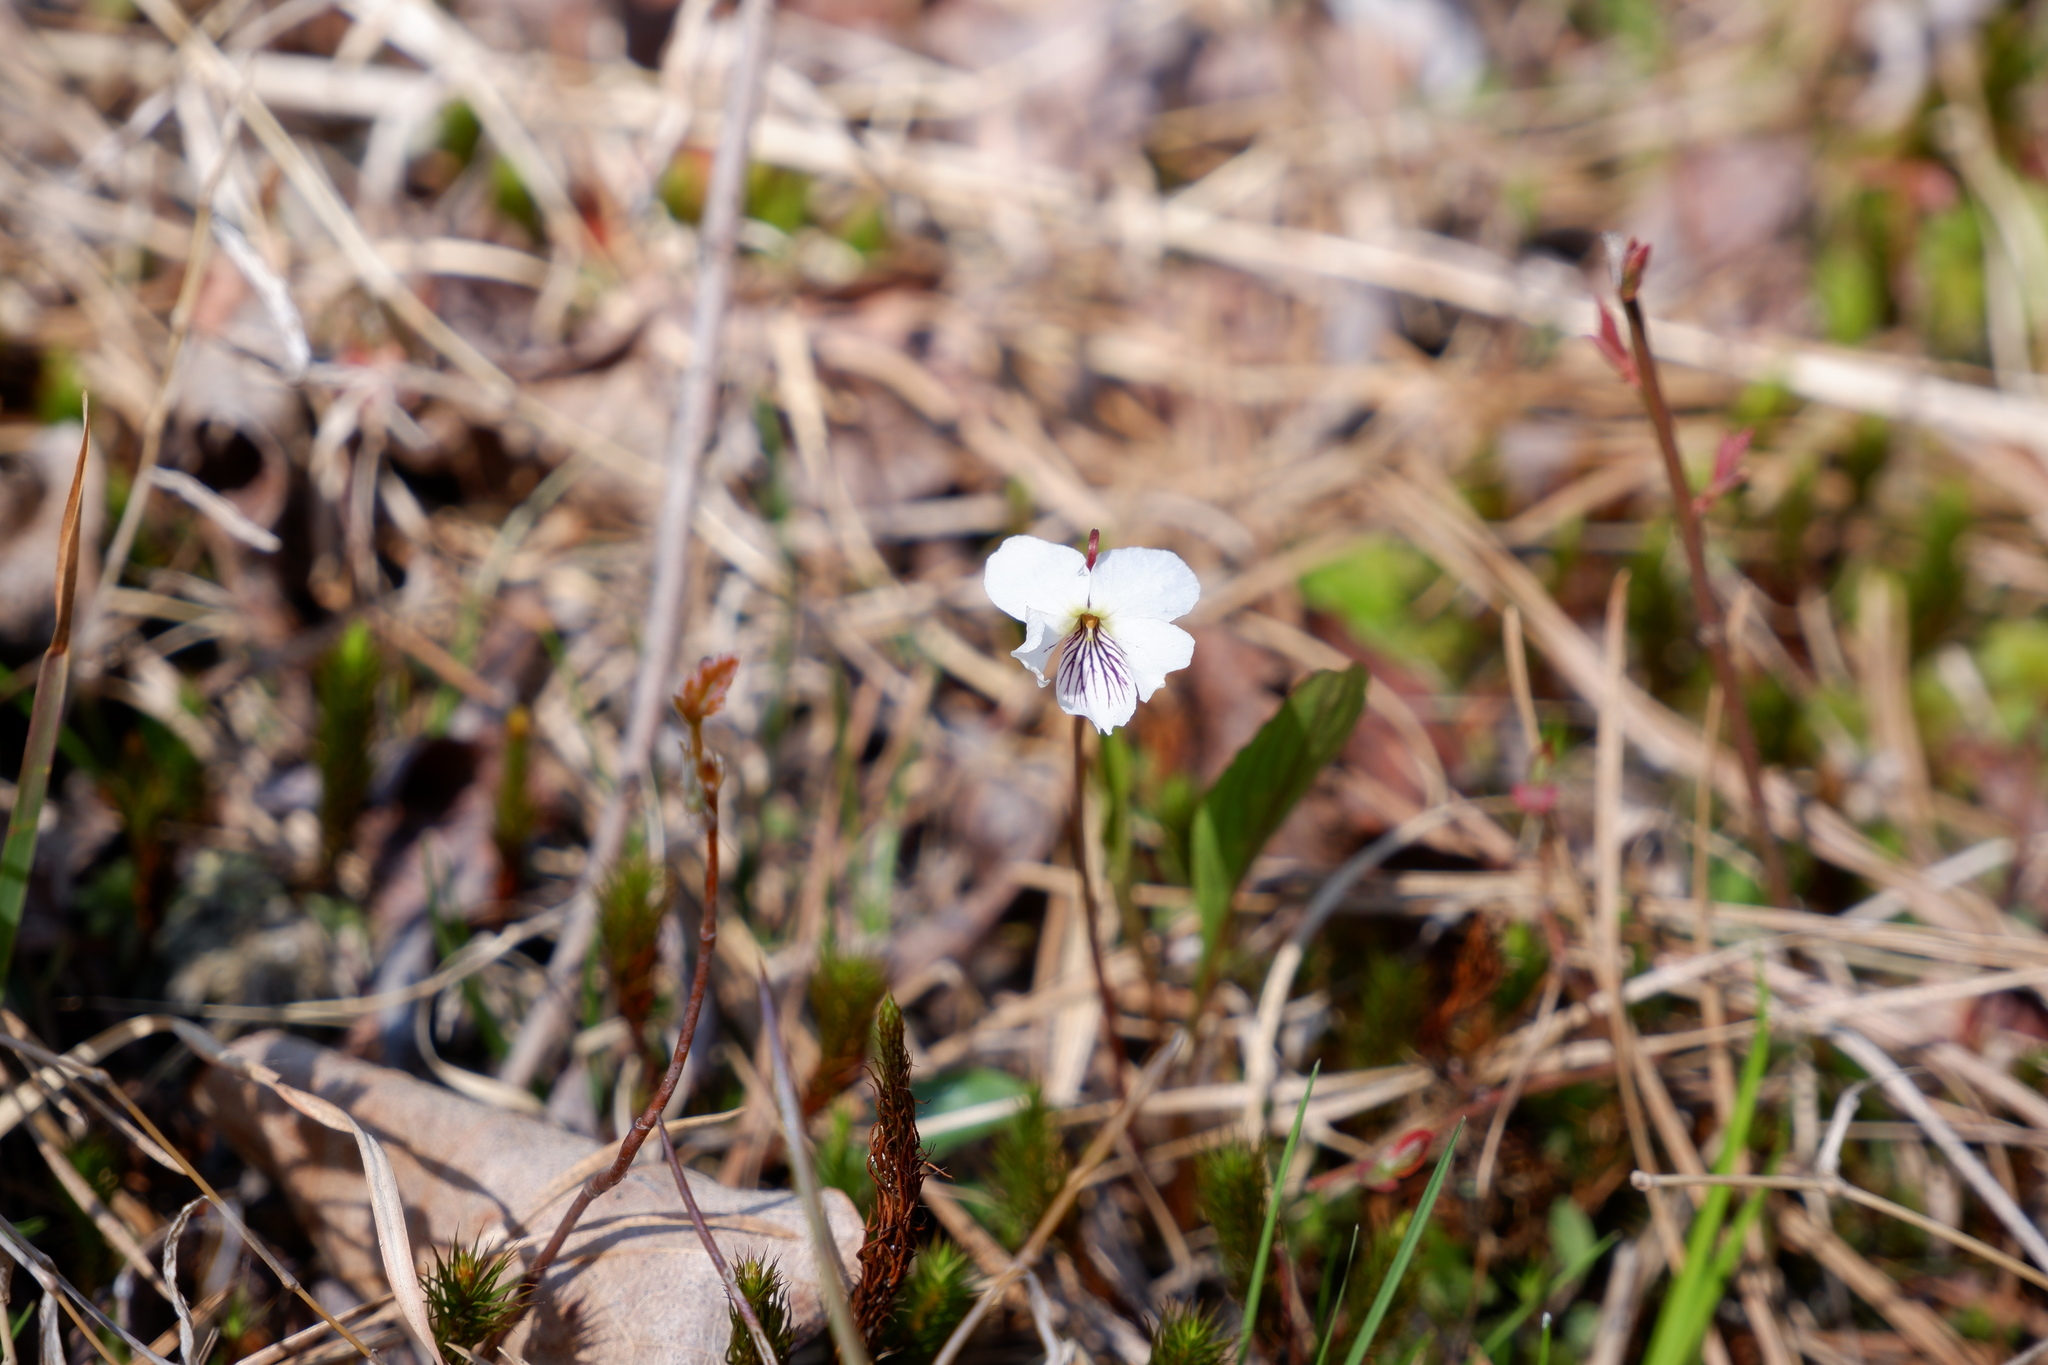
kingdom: Plantae
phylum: Tracheophyta
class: Magnoliopsida
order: Malpighiales
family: Violaceae
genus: Viola
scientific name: Viola lanceolata
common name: Bog white violet
